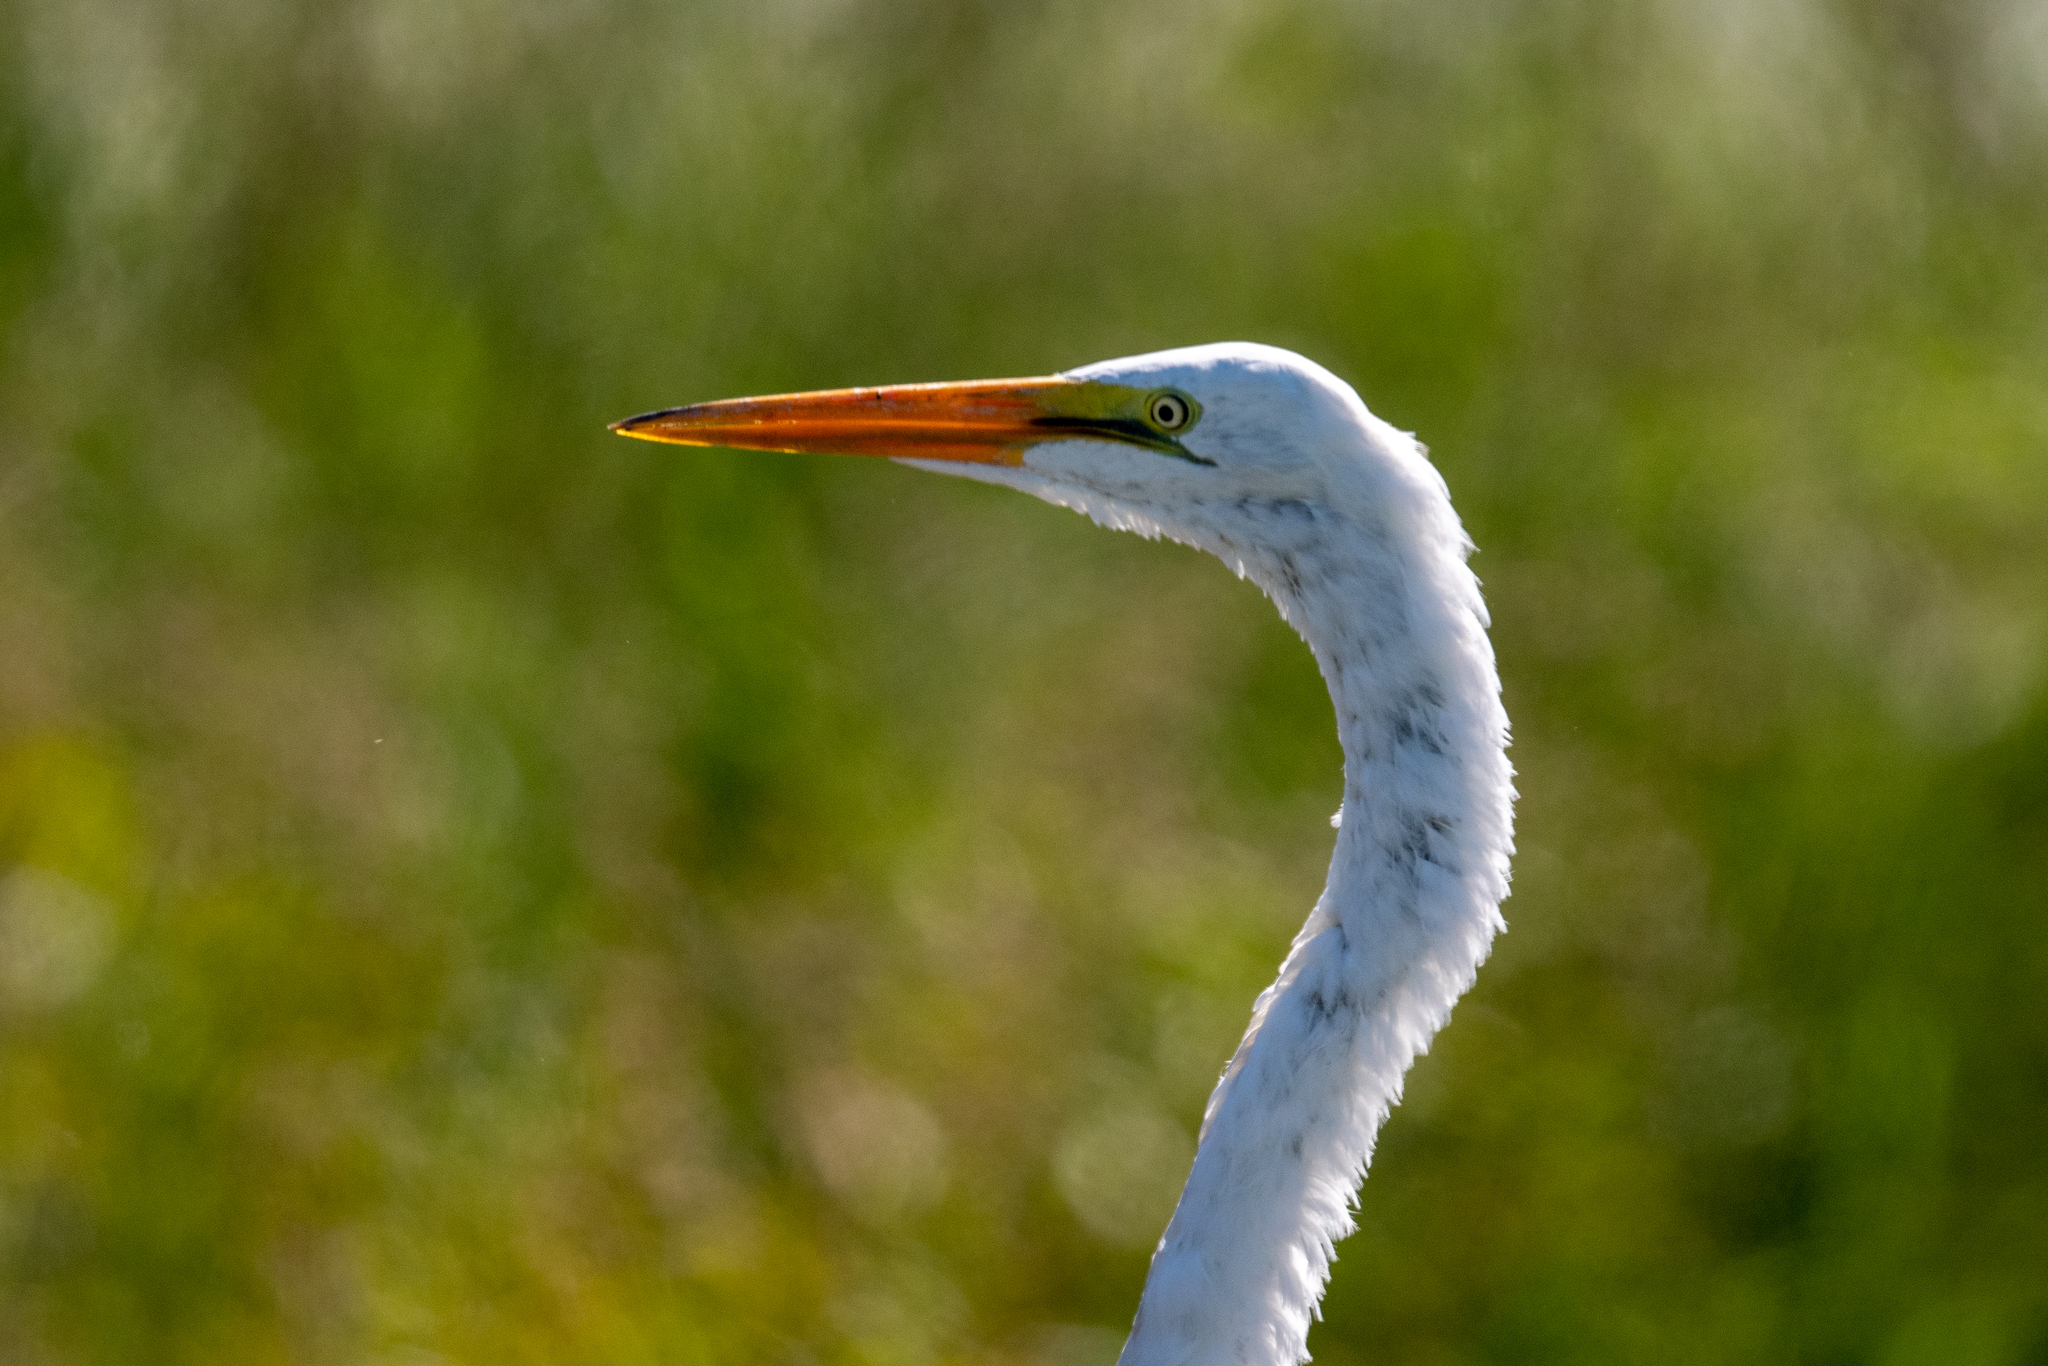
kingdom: Animalia
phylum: Chordata
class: Aves
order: Pelecaniformes
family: Ardeidae
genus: Ardea
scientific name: Ardea alba
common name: Great egret
